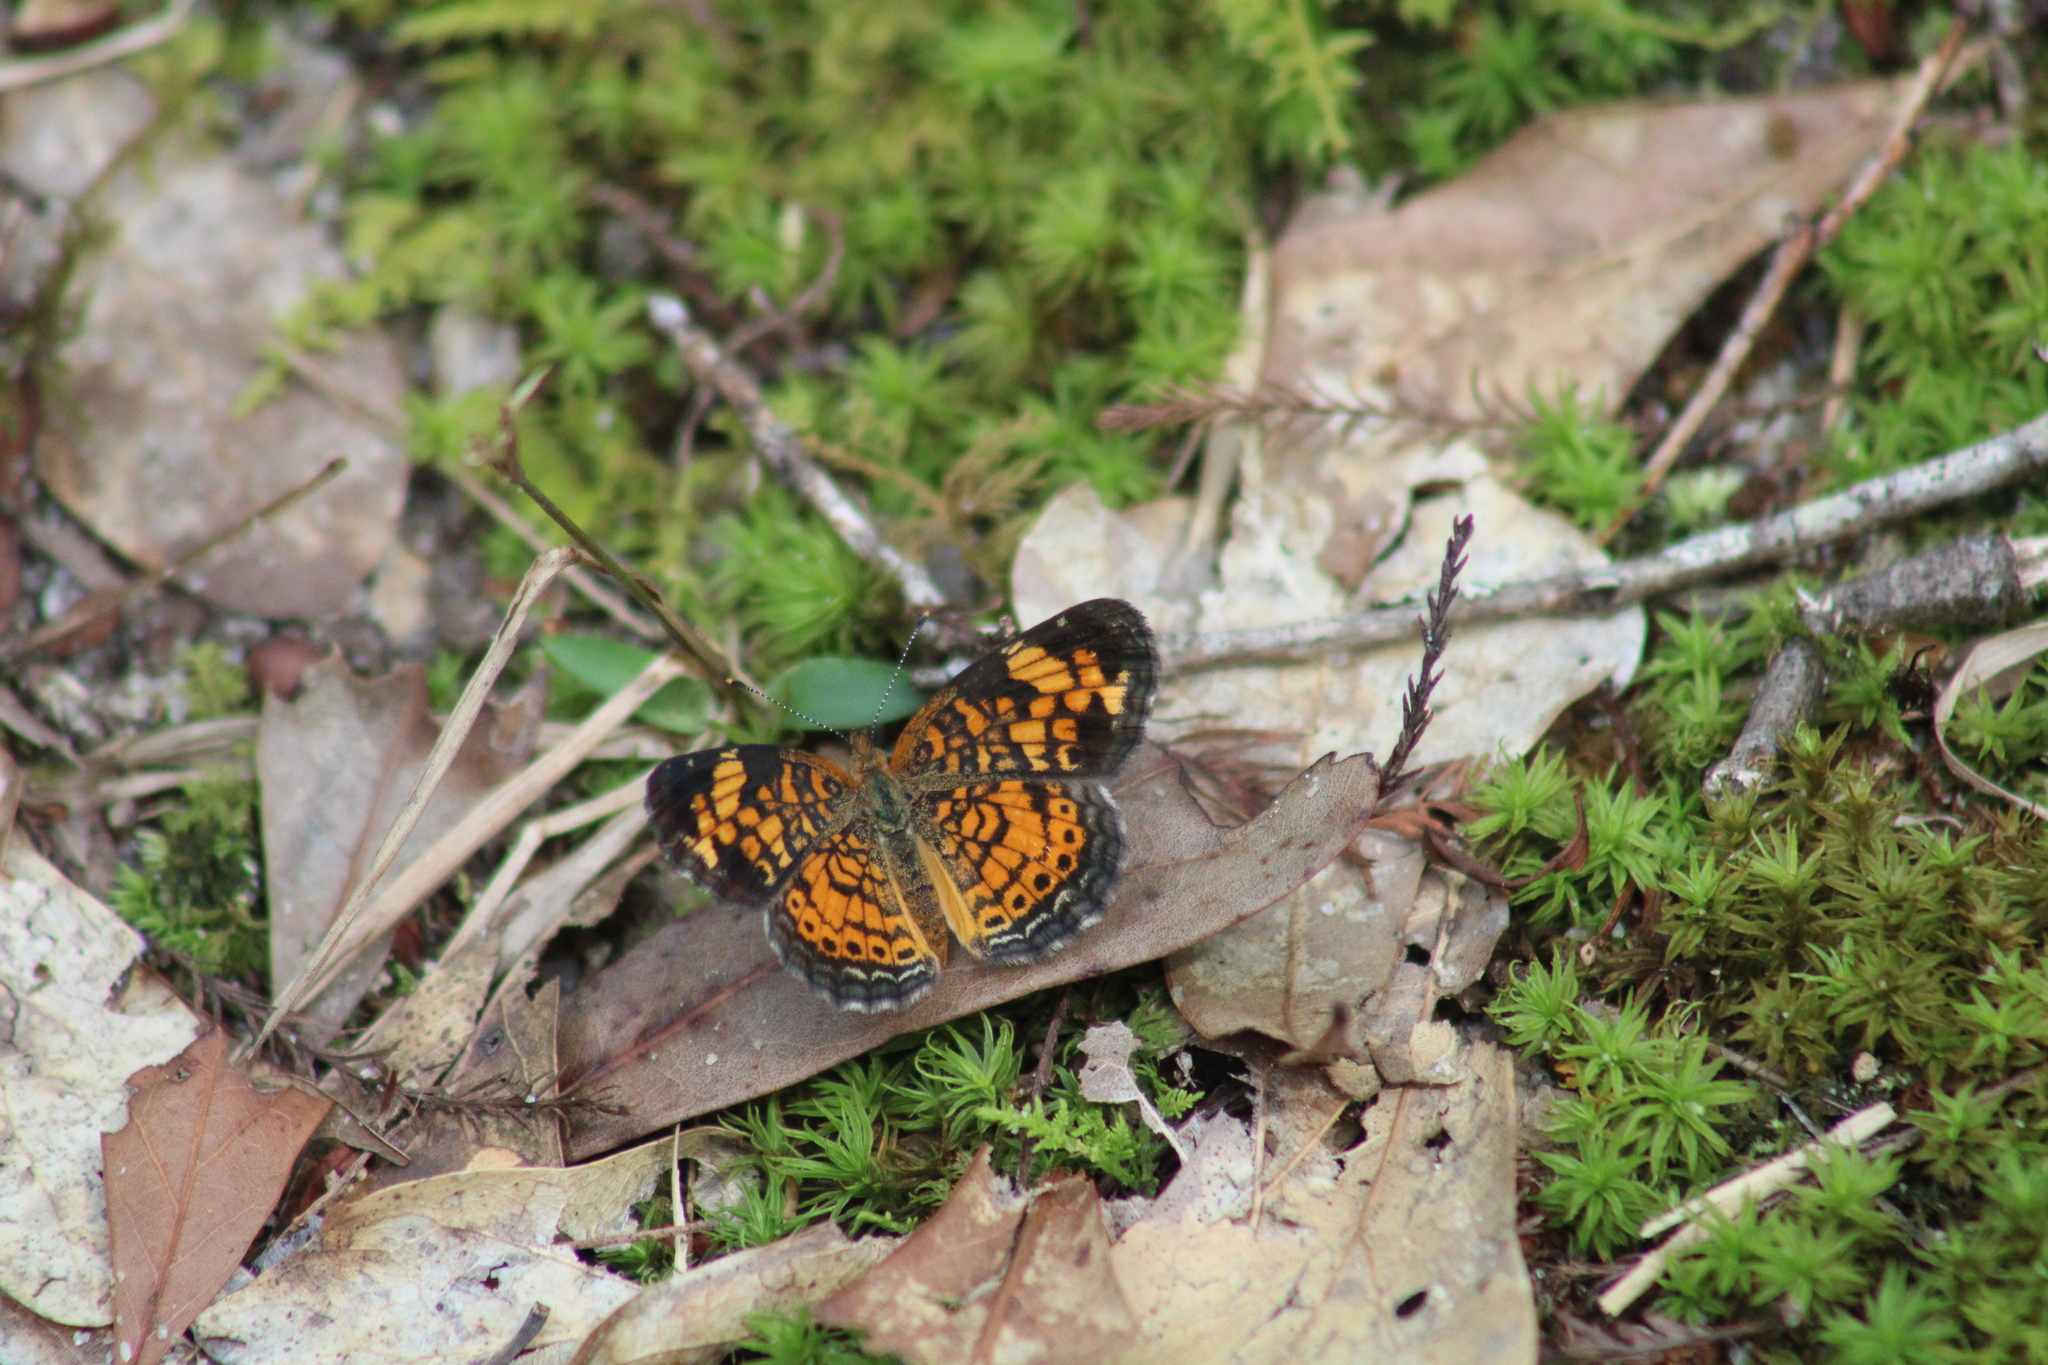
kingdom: Animalia
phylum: Arthropoda
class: Insecta
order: Lepidoptera
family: Nymphalidae
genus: Phyciodes
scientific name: Phyciodes tharos
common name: Pearl crescent
